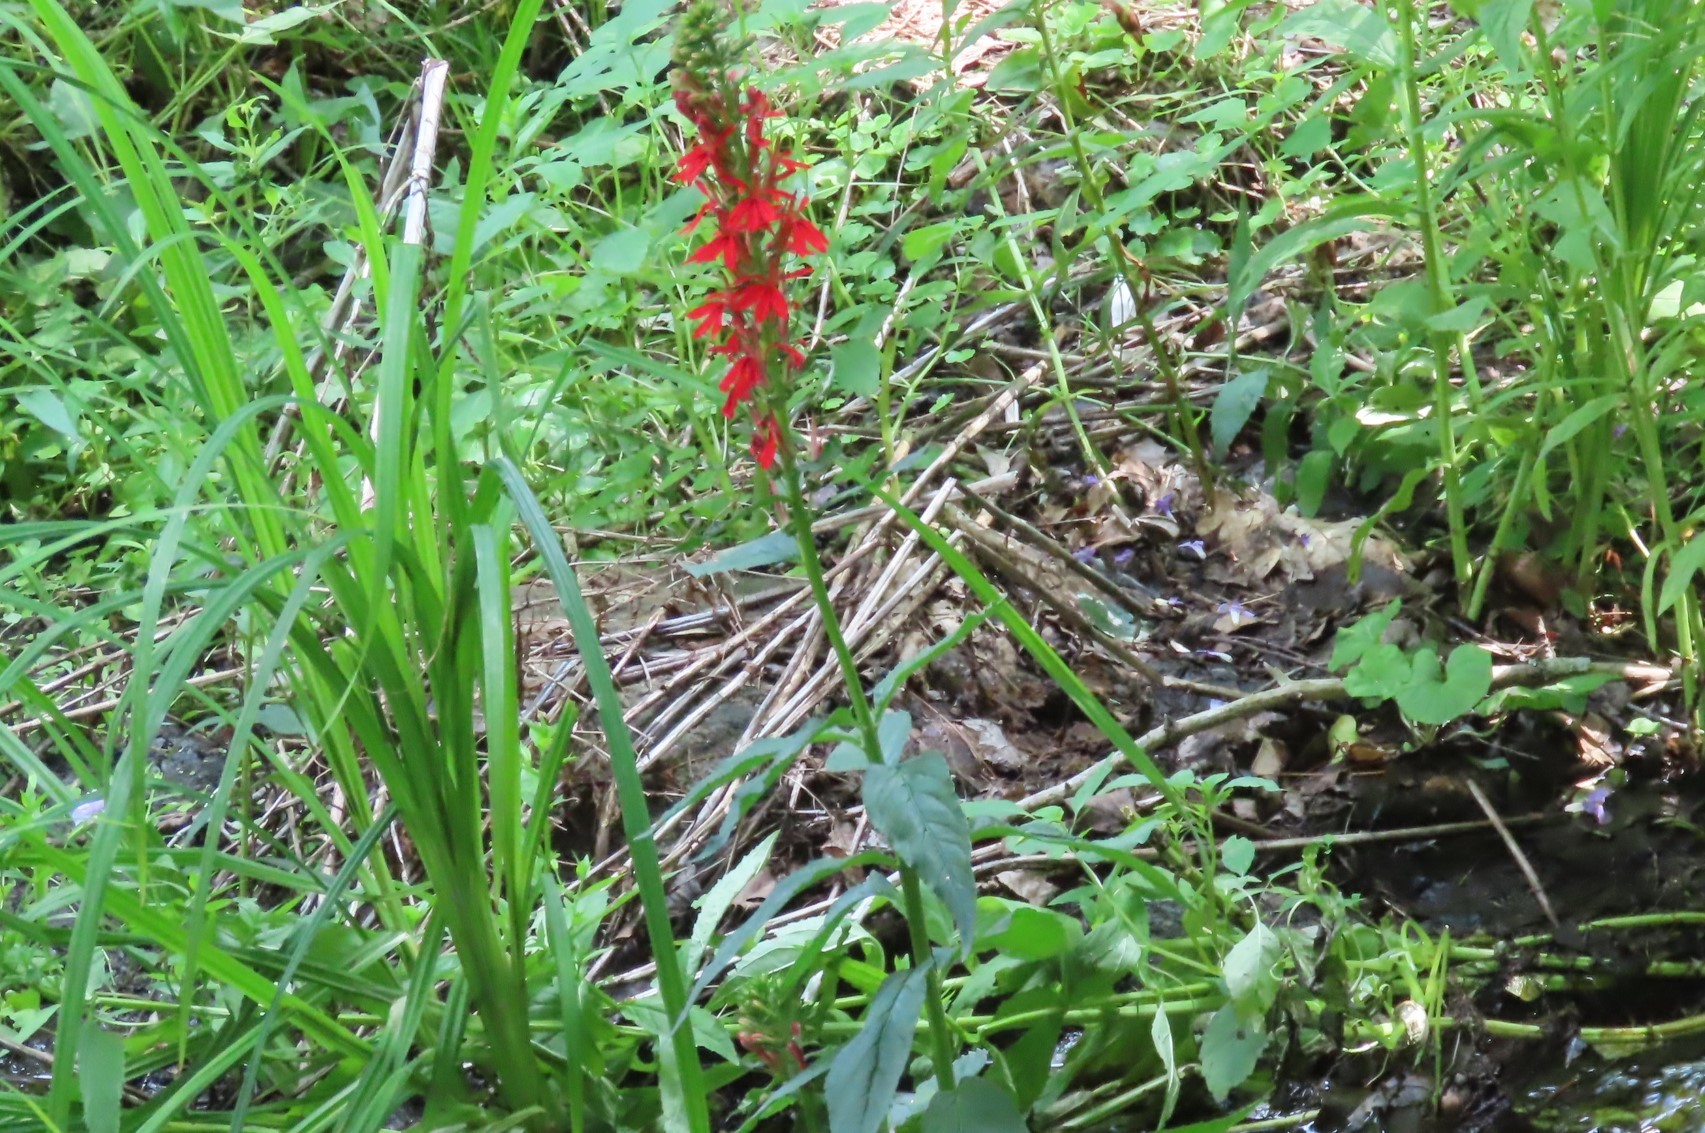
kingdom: Plantae
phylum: Tracheophyta
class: Magnoliopsida
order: Asterales
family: Campanulaceae
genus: Lobelia
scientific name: Lobelia cardinalis
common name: Cardinal flower
